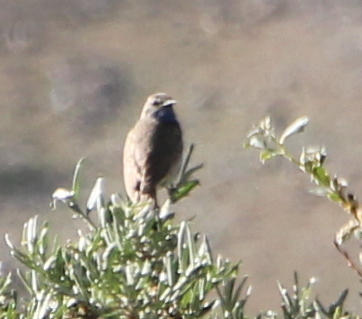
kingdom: Animalia
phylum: Chordata
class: Aves
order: Passeriformes
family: Muscicapidae
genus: Luscinia
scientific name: Luscinia svecica
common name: Bluethroat
